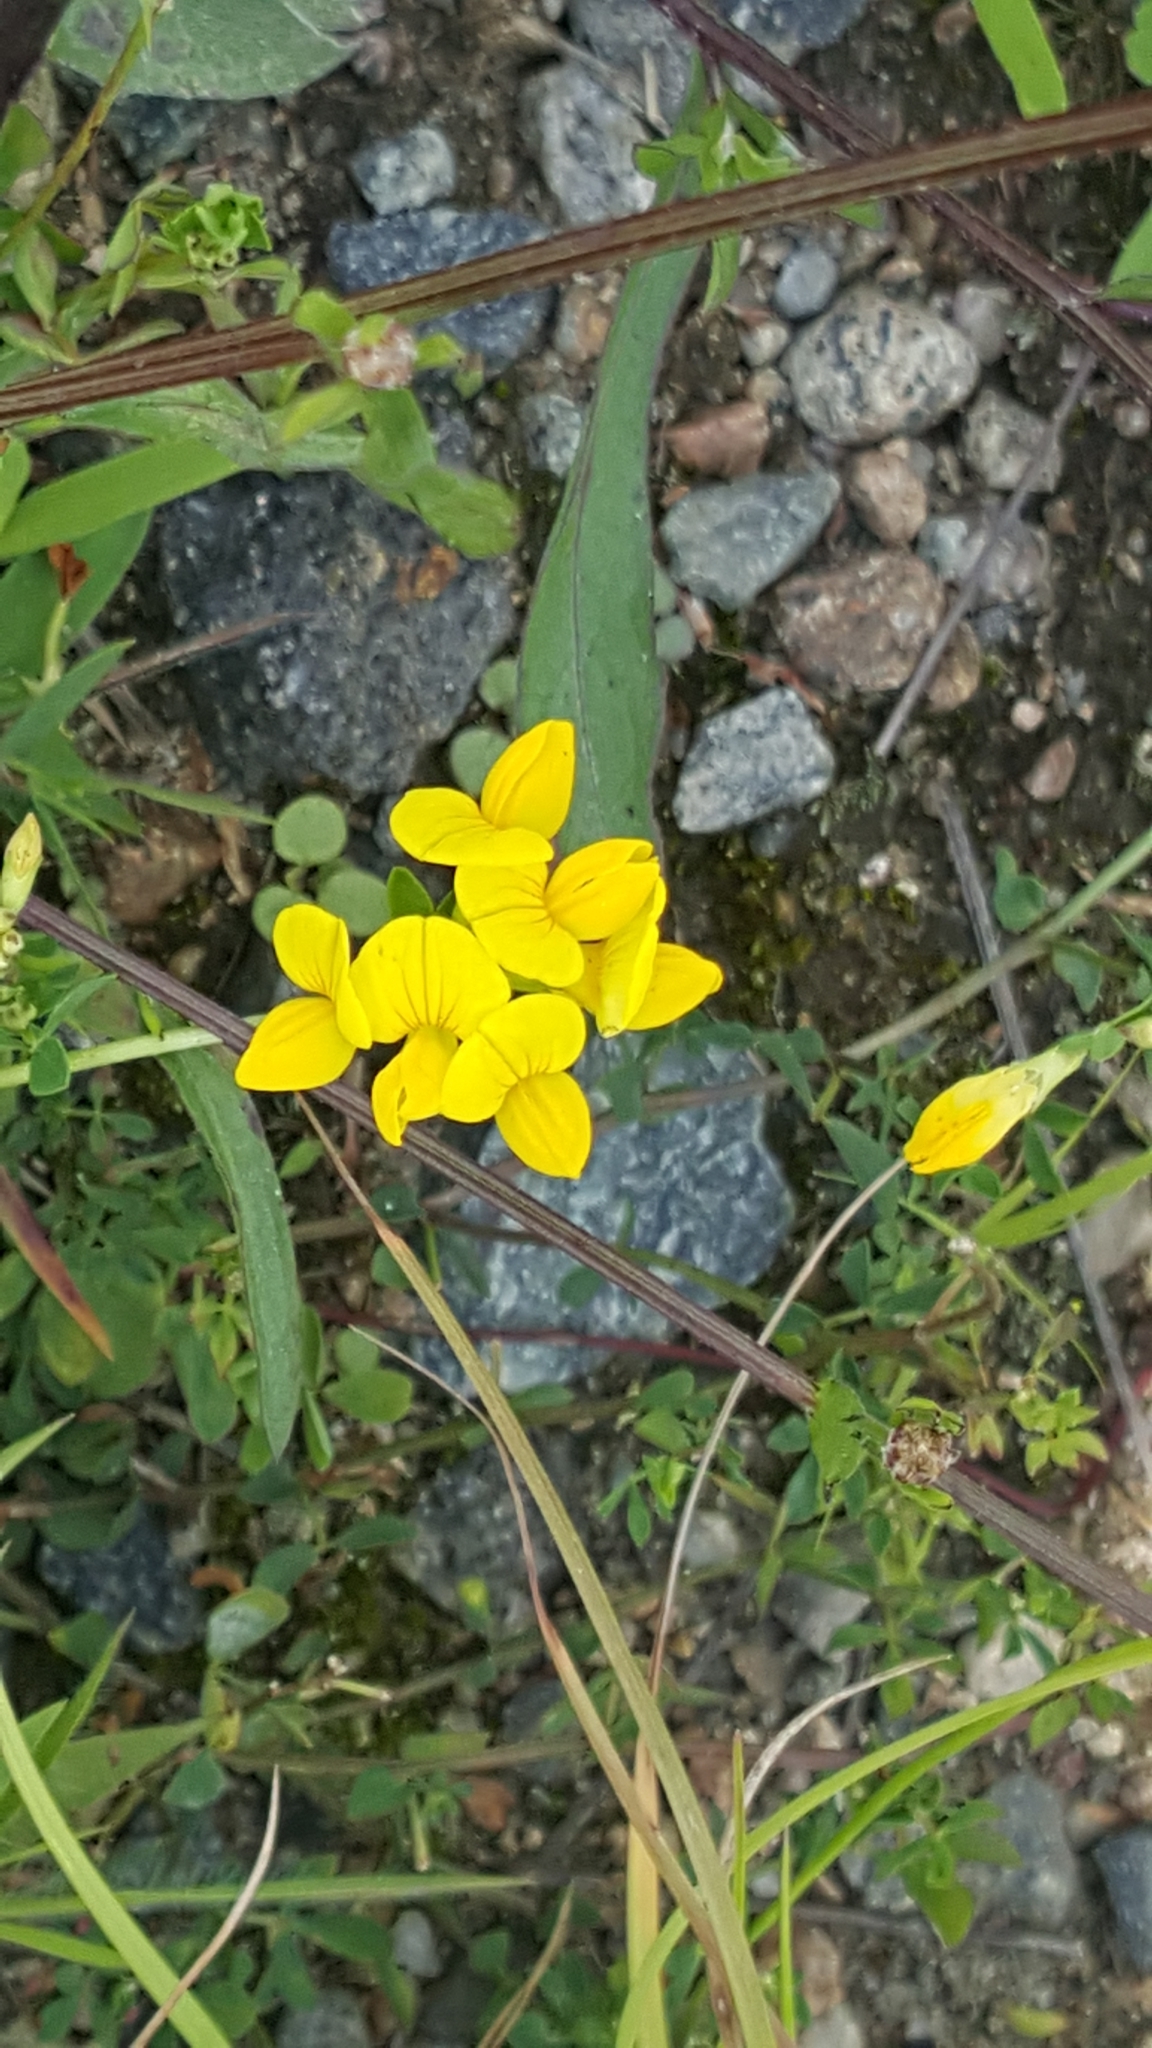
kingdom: Plantae
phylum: Tracheophyta
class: Magnoliopsida
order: Fabales
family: Fabaceae
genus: Lotus
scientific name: Lotus corniculatus
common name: Common bird's-foot-trefoil
